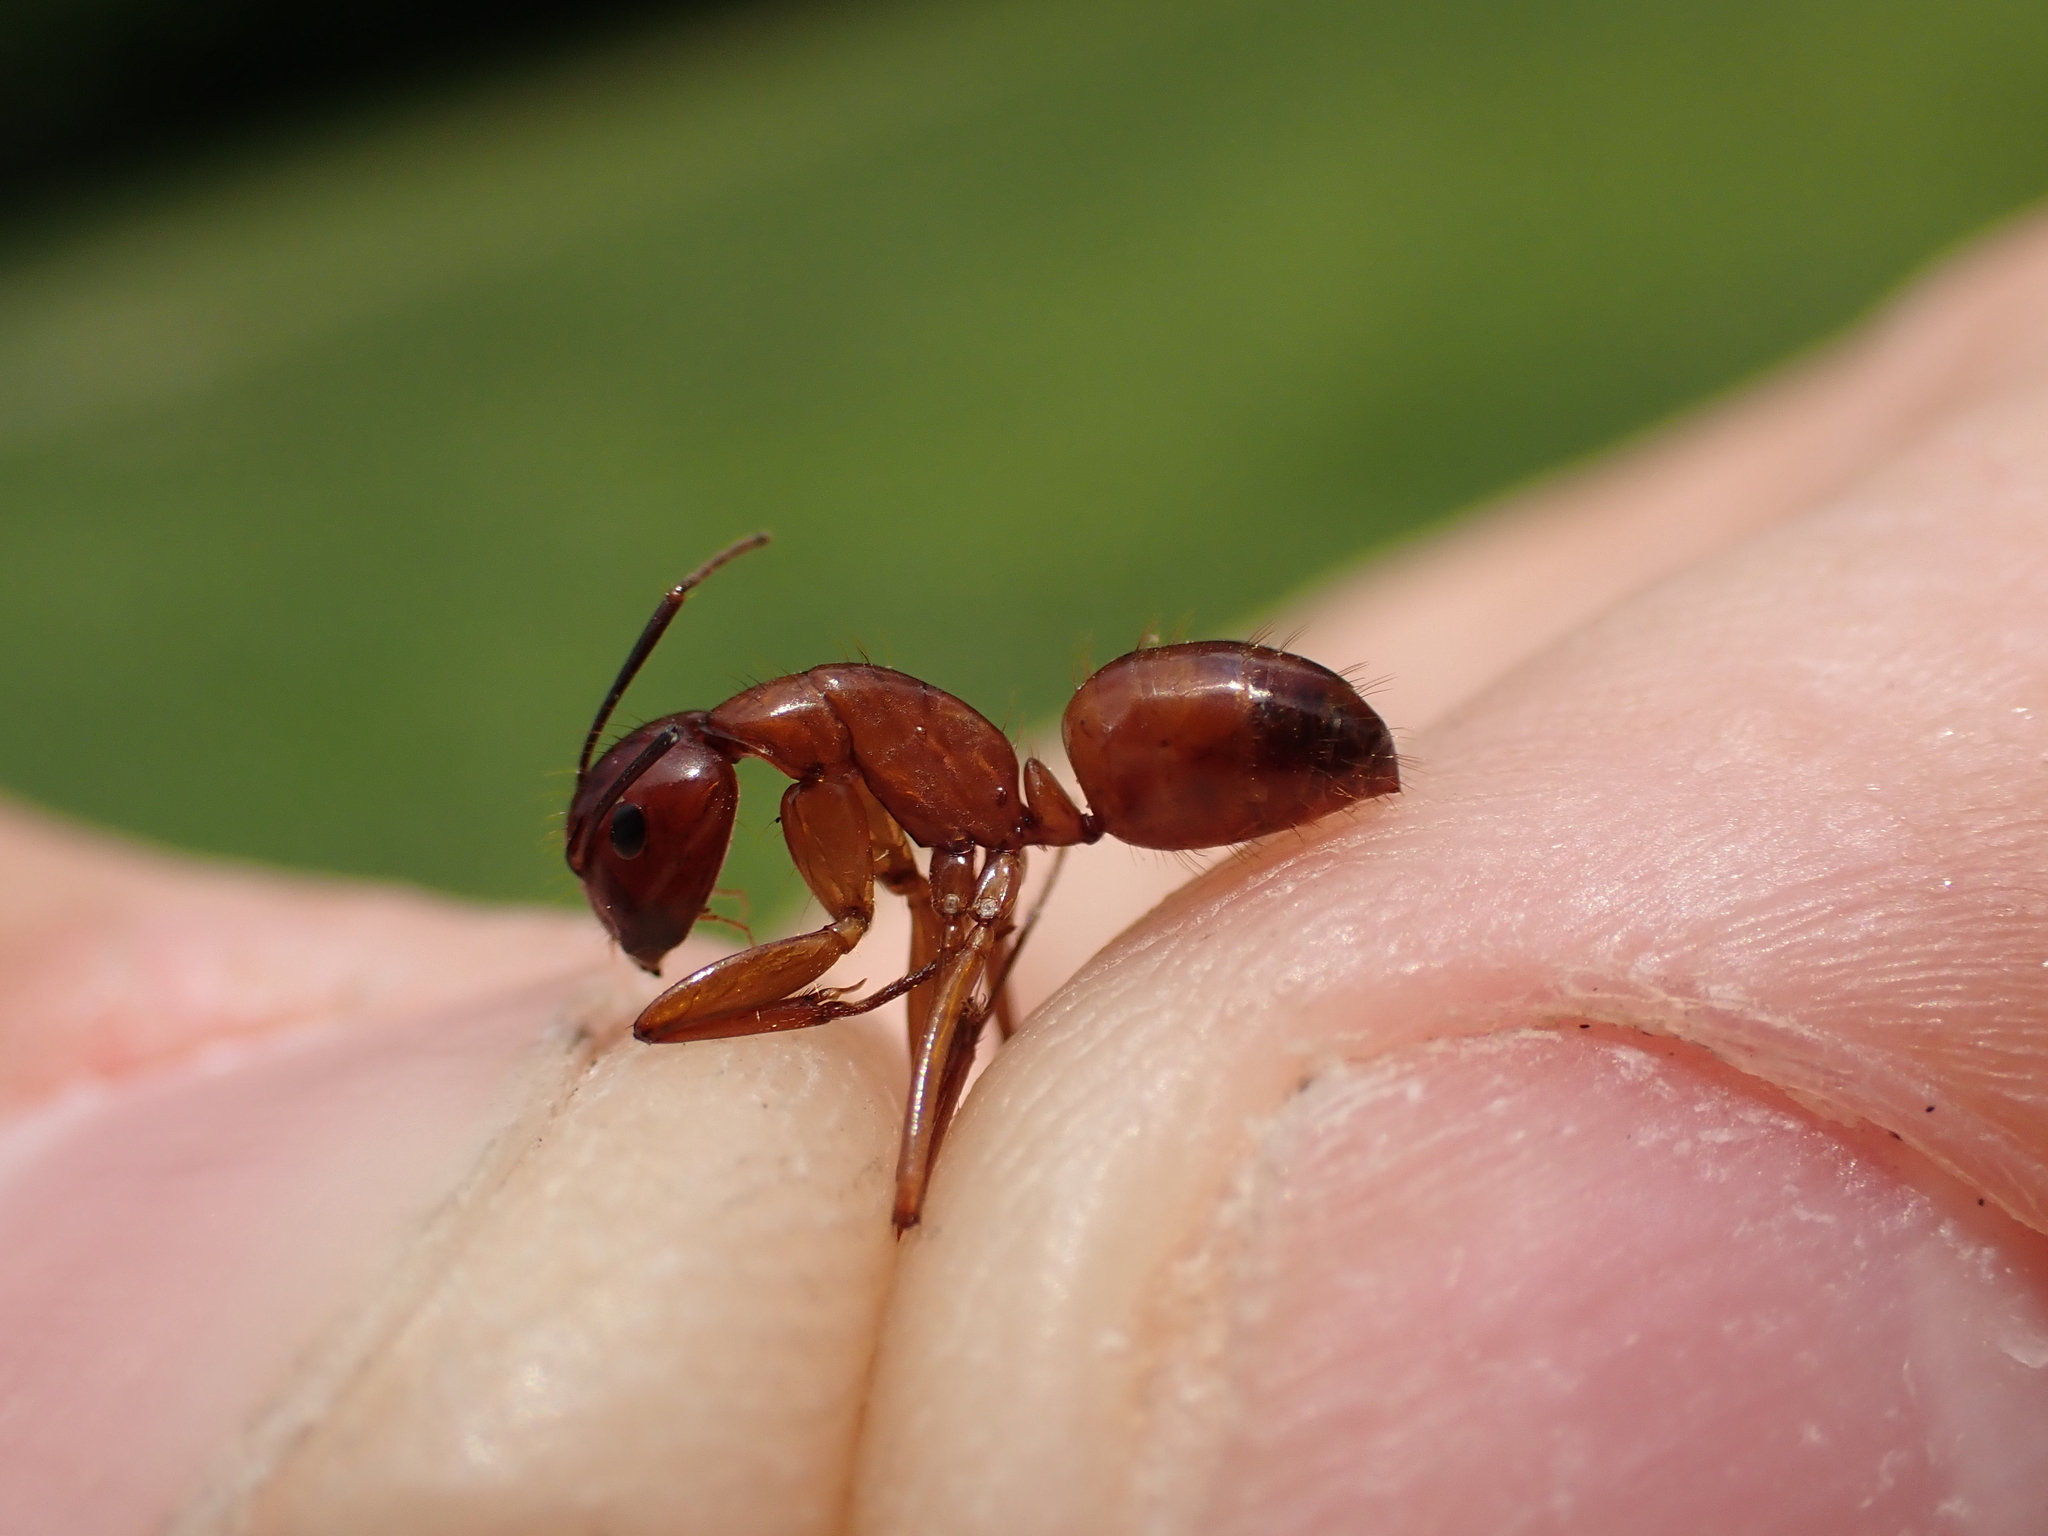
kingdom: Animalia
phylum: Arthropoda
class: Insecta
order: Hymenoptera
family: Formicidae
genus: Camponotus
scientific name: Camponotus castaneus
